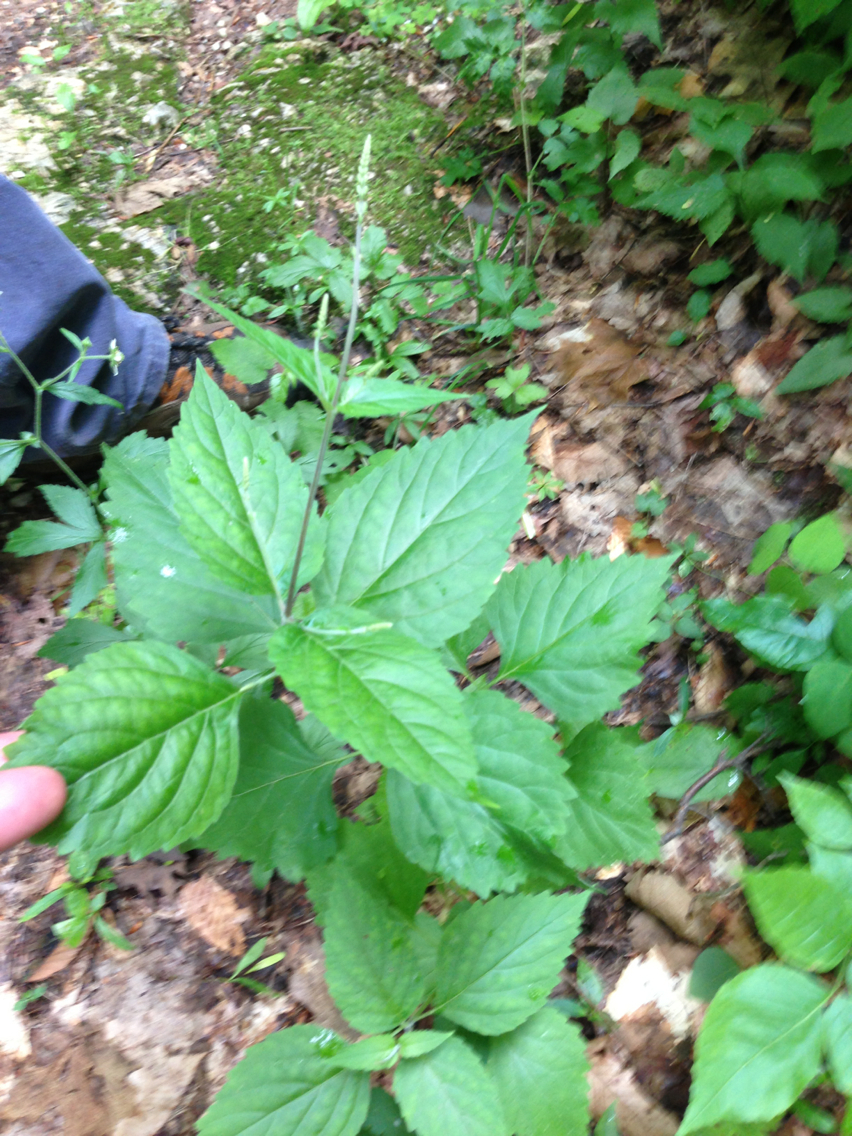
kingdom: Plantae
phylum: Tracheophyta
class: Magnoliopsida
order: Lamiales
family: Phrymaceae
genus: Phryma
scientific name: Phryma leptostachya
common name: American lopseed
